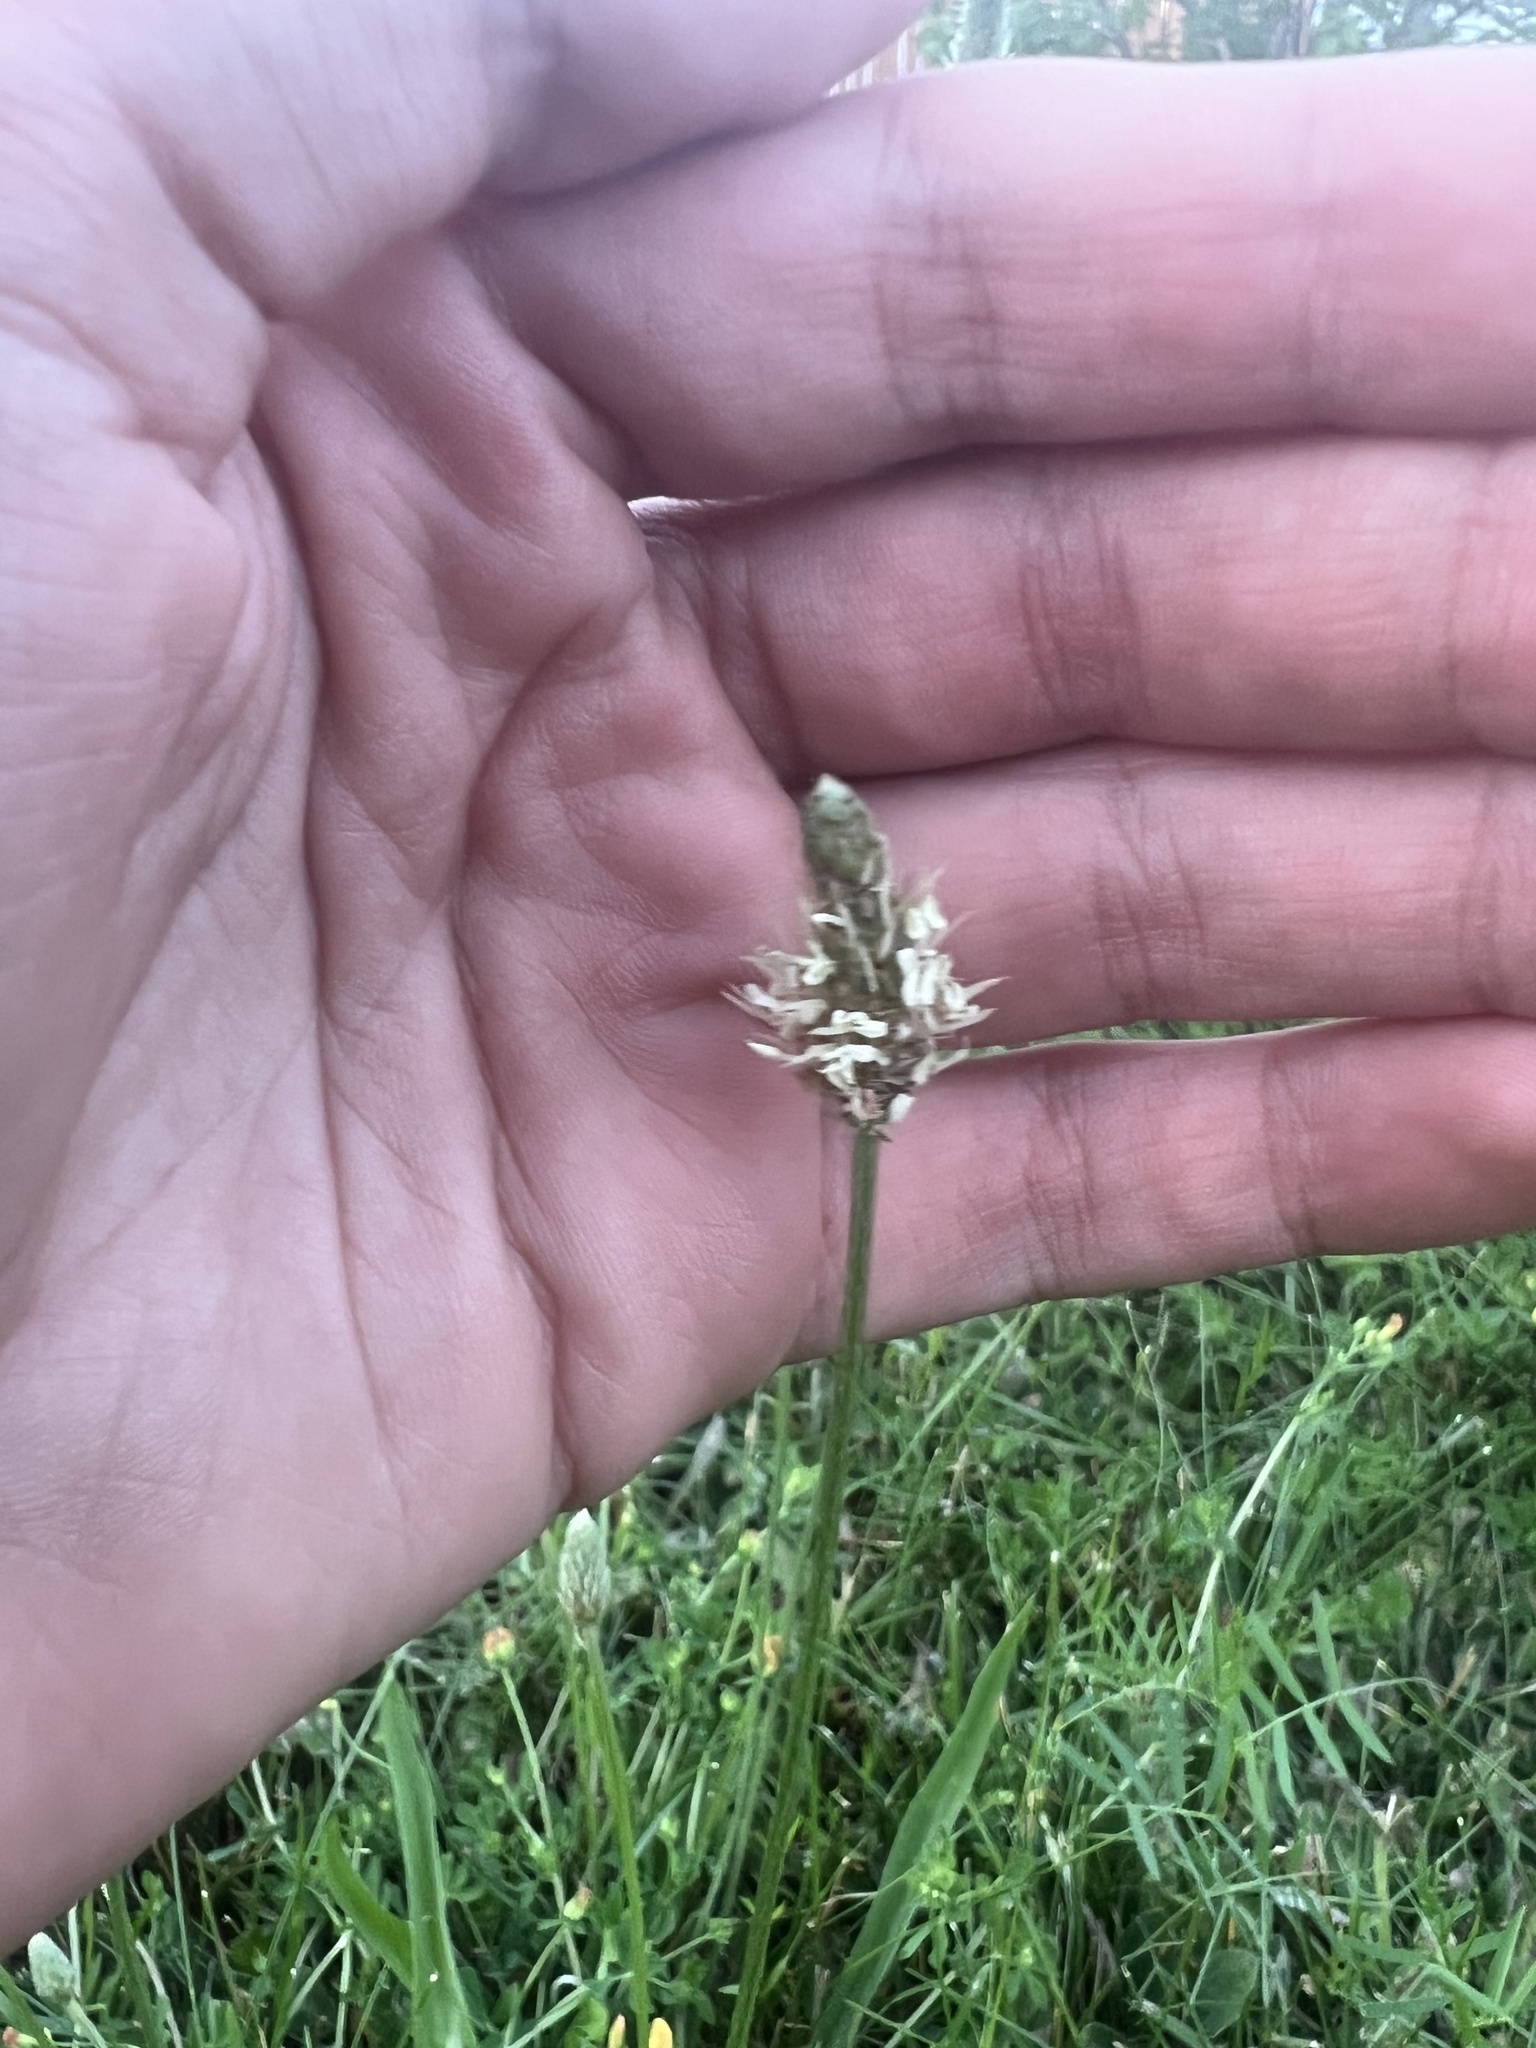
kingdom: Plantae
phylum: Tracheophyta
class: Magnoliopsida
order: Lamiales
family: Plantaginaceae
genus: Plantago
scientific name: Plantago lanceolata
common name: Ribwort plantain
